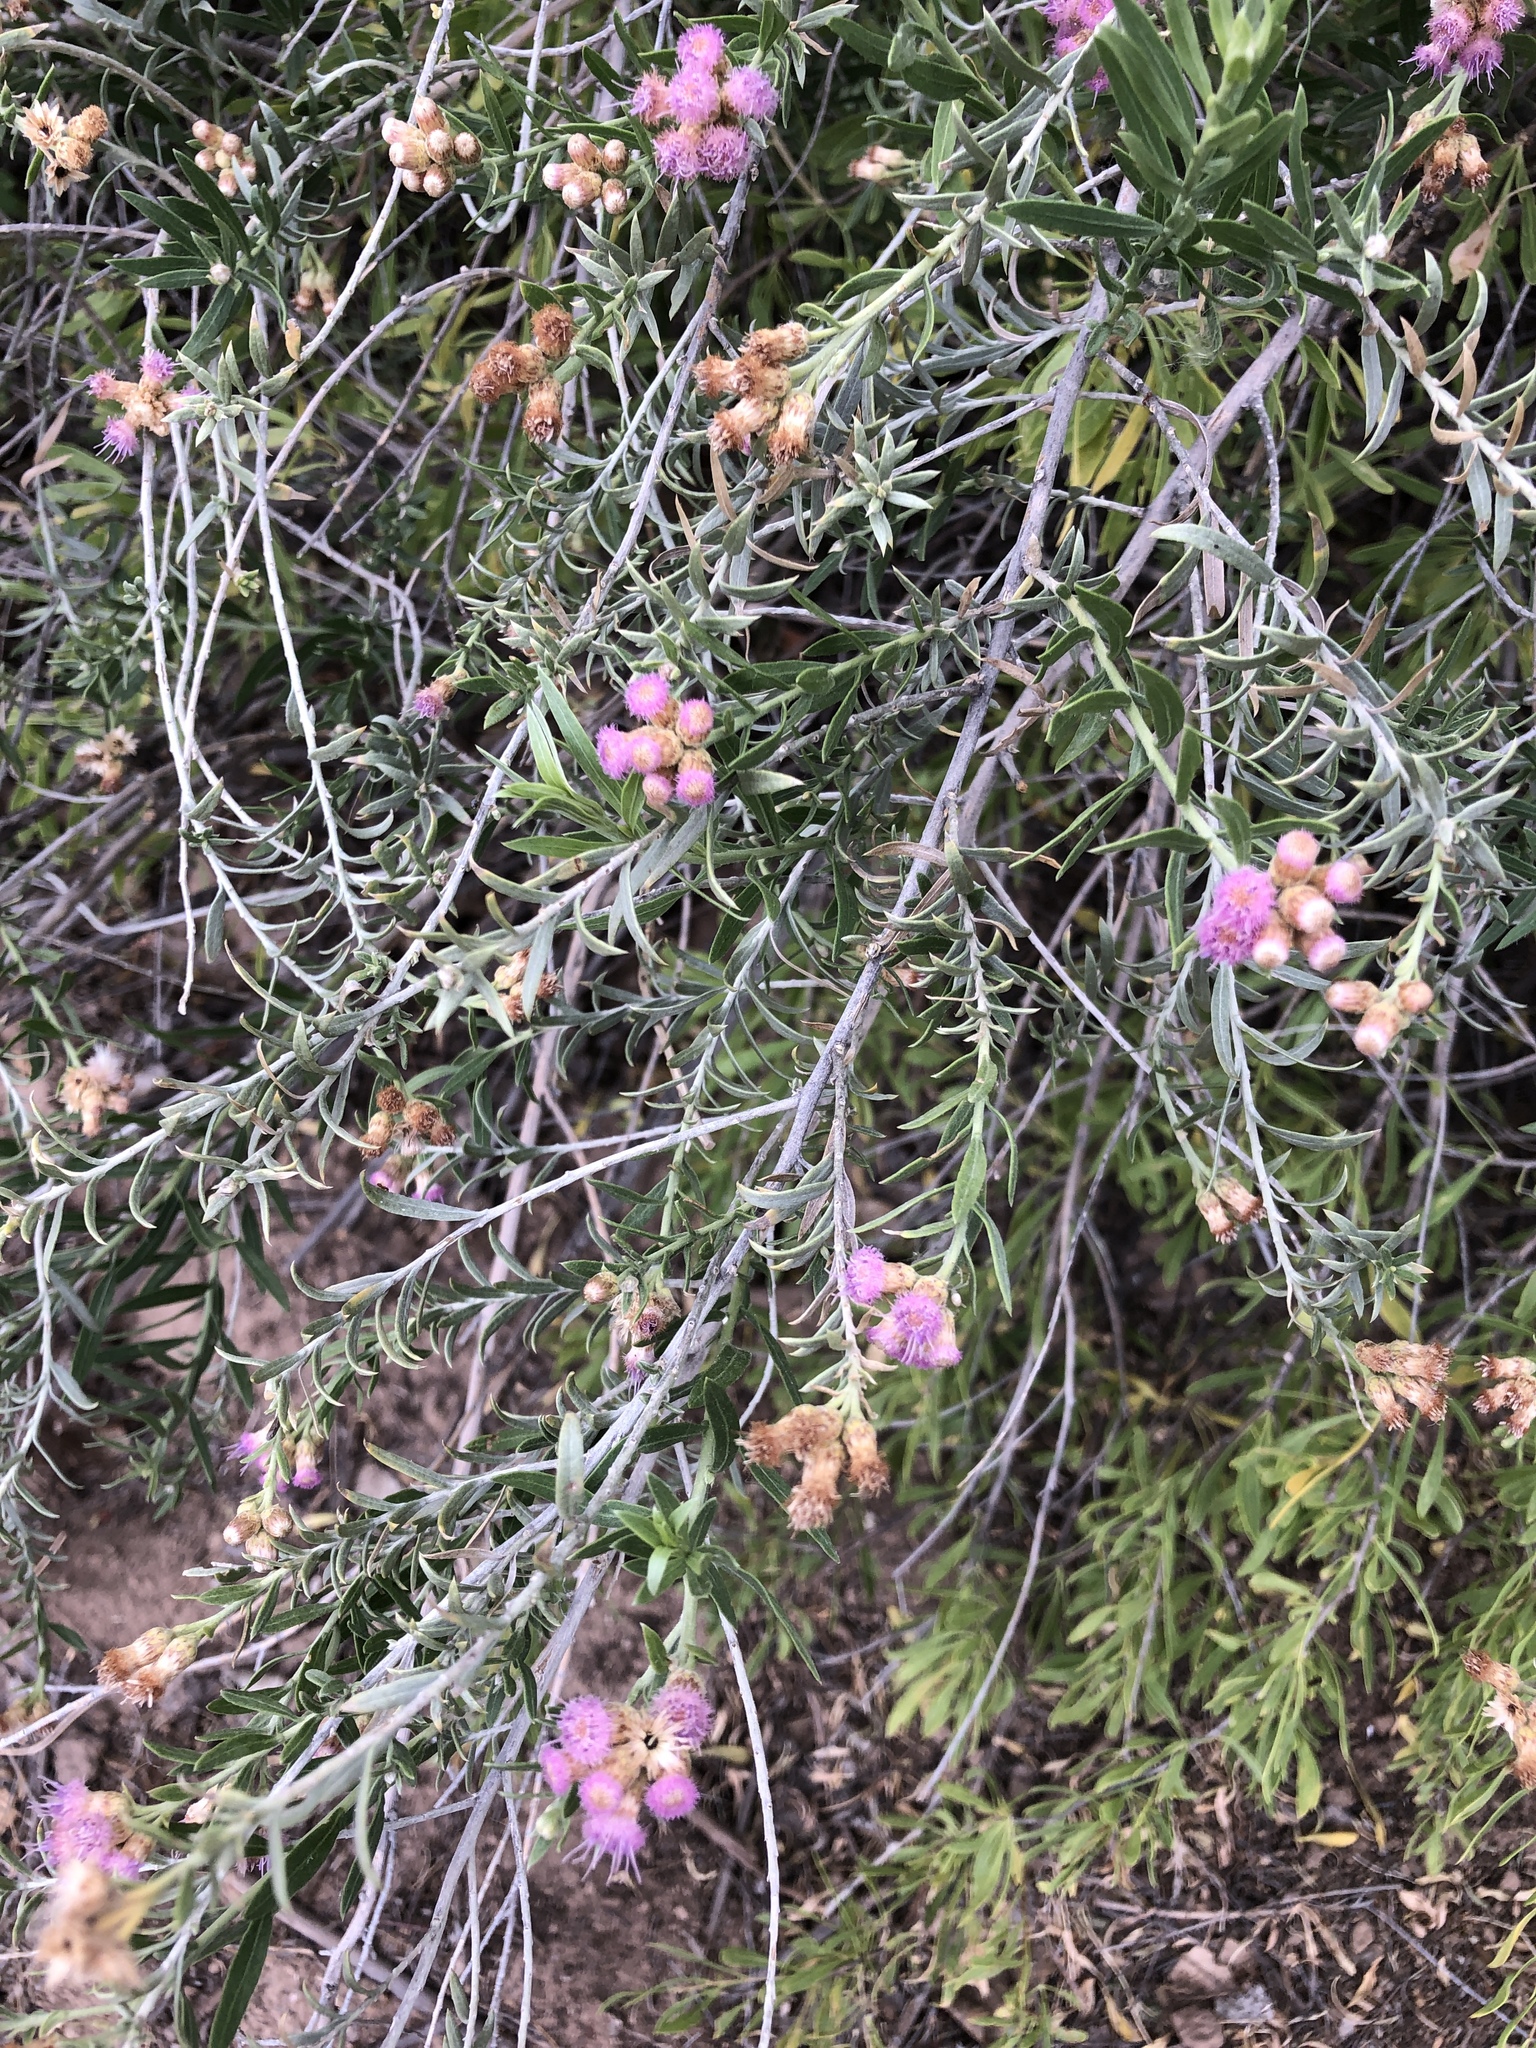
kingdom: Plantae
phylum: Tracheophyta
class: Magnoliopsida
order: Asterales
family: Asteraceae
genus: Pluchea
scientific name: Pluchea sericea
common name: Arrow-weed
